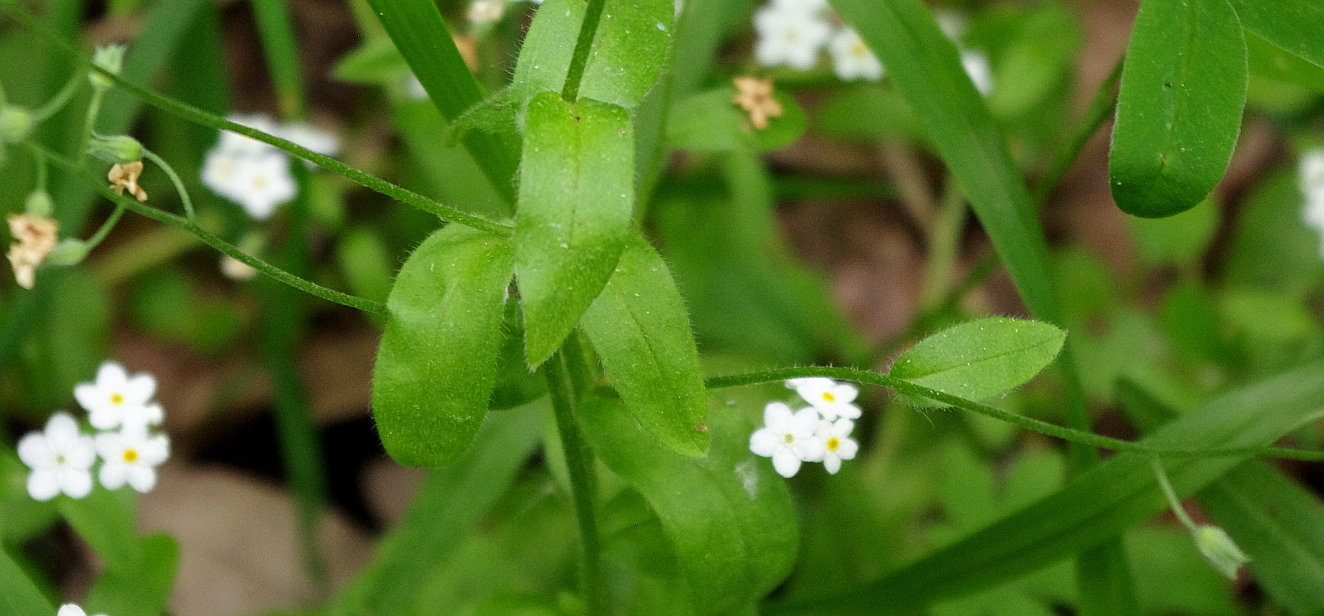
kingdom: Plantae
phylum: Tracheophyta
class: Magnoliopsida
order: Boraginales
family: Boraginaceae
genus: Myosotis
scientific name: Myosotis sylvatica
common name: Wood forget-me-not
